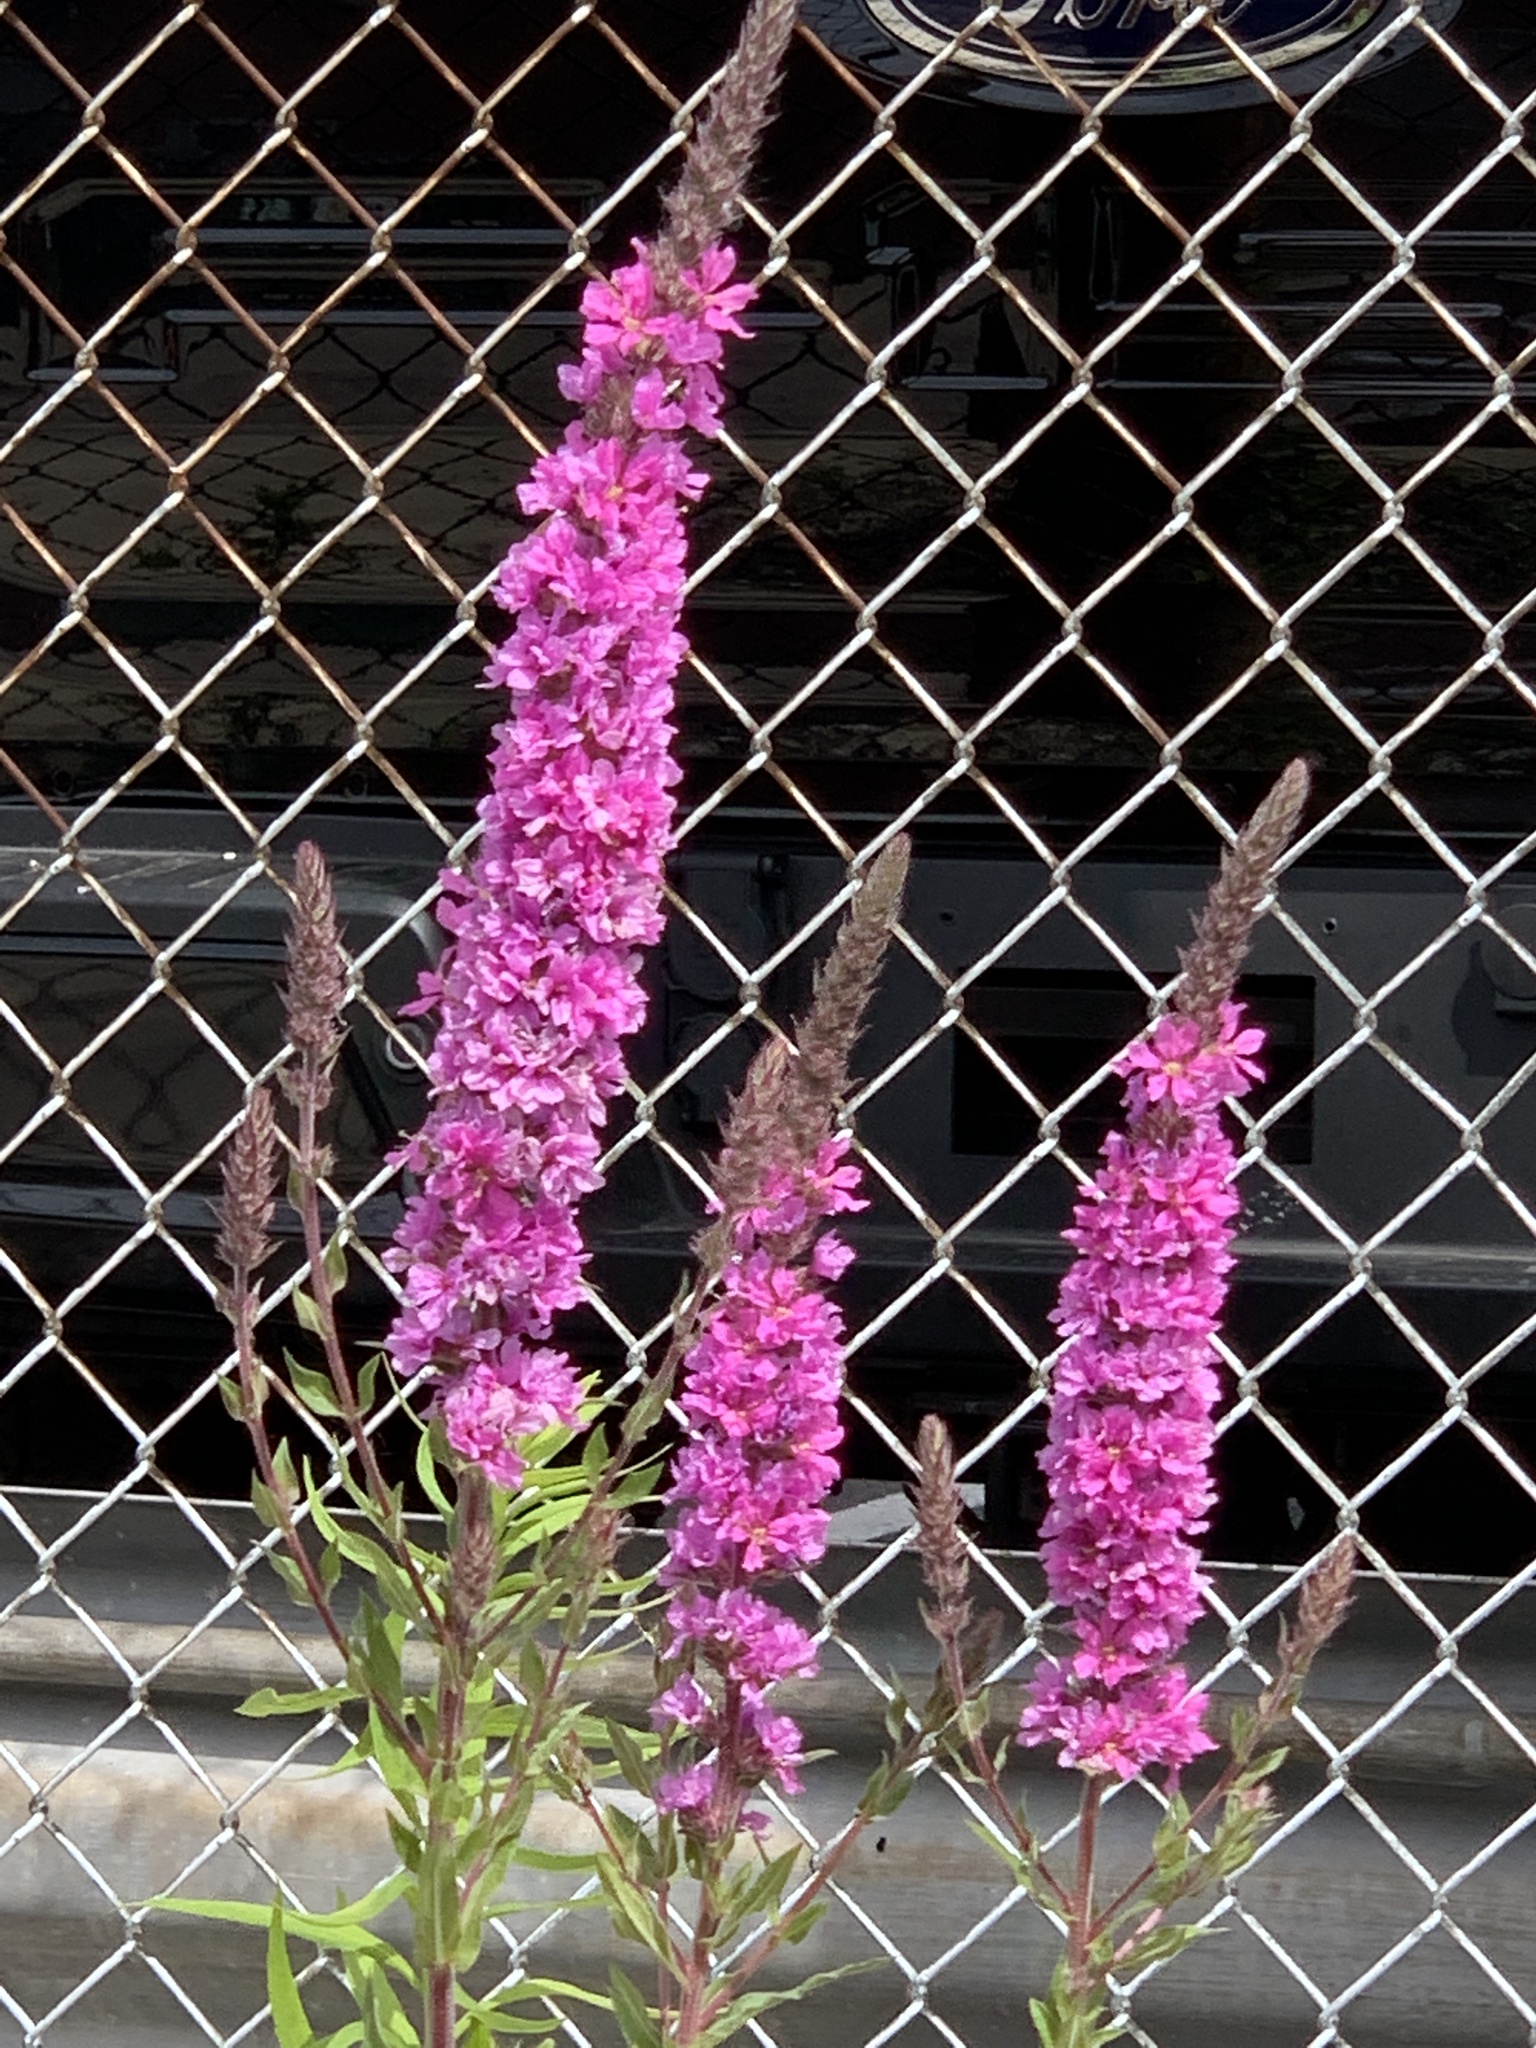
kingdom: Plantae
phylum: Tracheophyta
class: Magnoliopsida
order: Myrtales
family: Lythraceae
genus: Lythrum
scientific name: Lythrum salicaria
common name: Purple loosestrife
